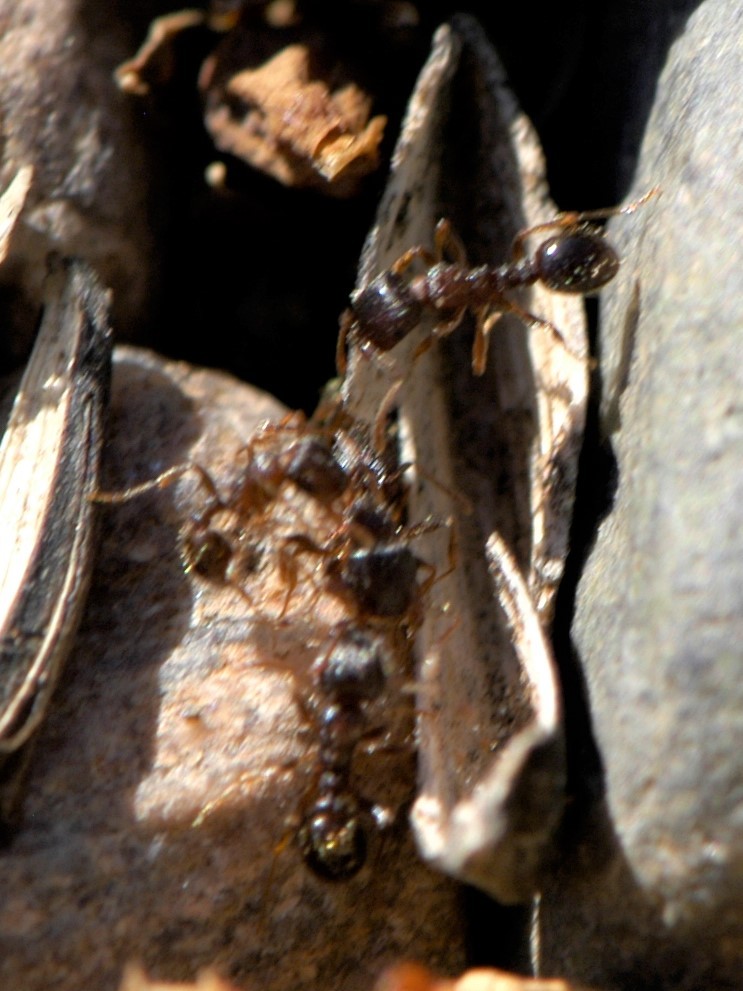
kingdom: Animalia
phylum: Arthropoda
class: Insecta
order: Hymenoptera
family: Formicidae
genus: Tetramorium
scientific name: Tetramorium immigrans
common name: Pavement ant
